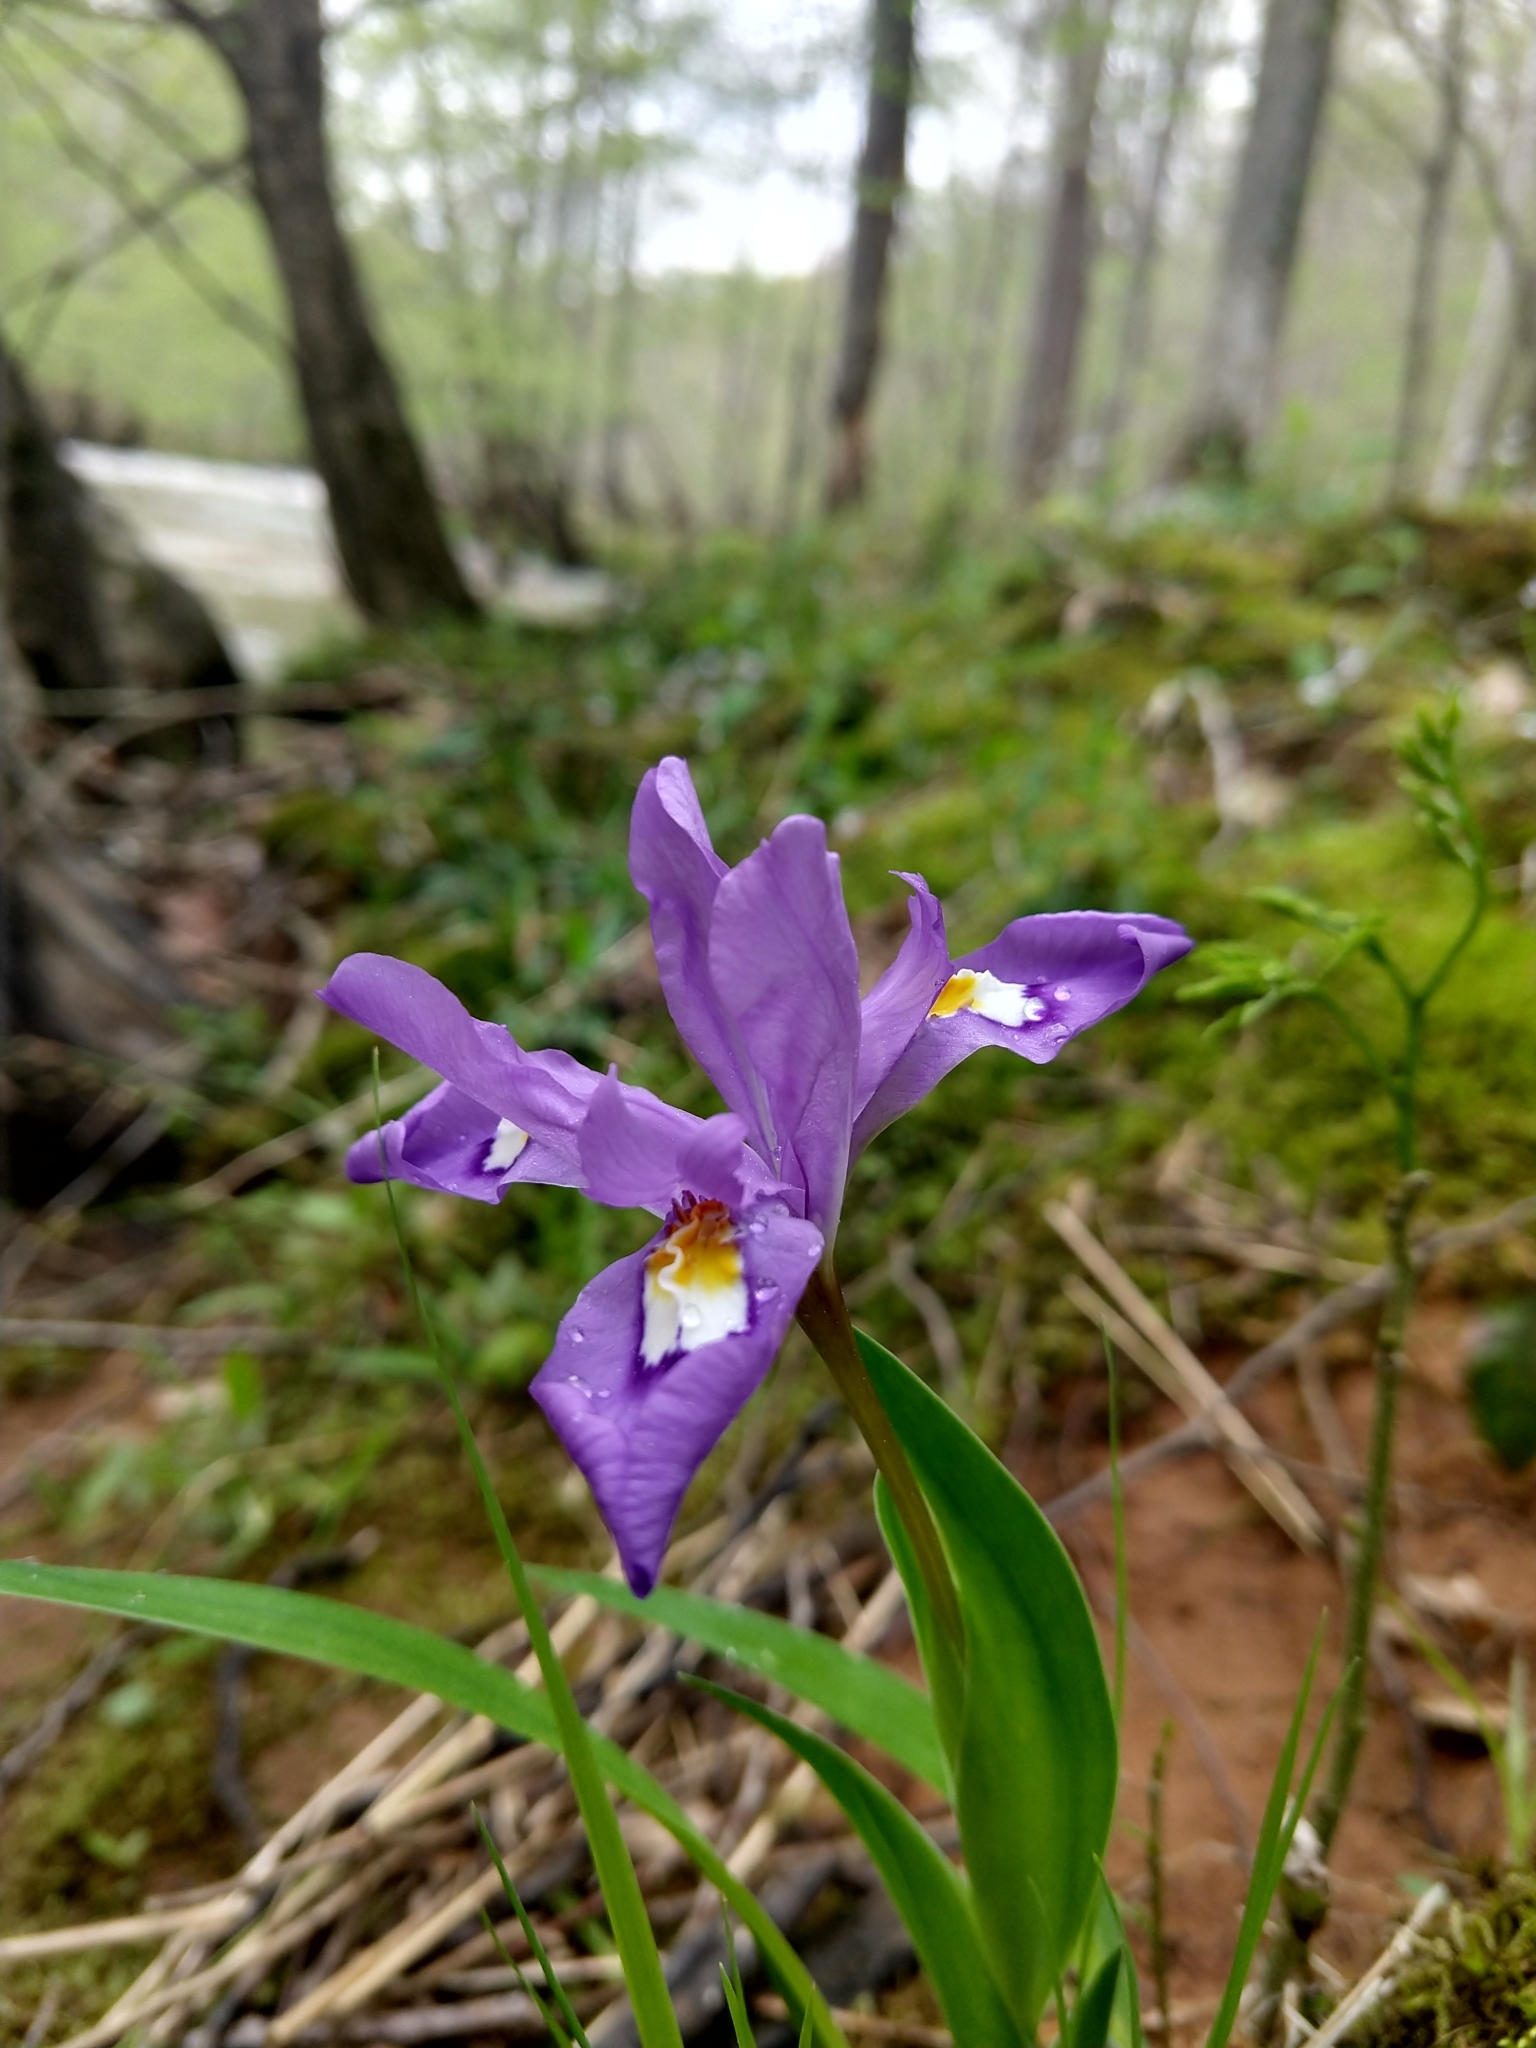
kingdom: Plantae
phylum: Tracheophyta
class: Liliopsida
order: Asparagales
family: Iridaceae
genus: Iris
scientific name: Iris cristata
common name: Crested iris
